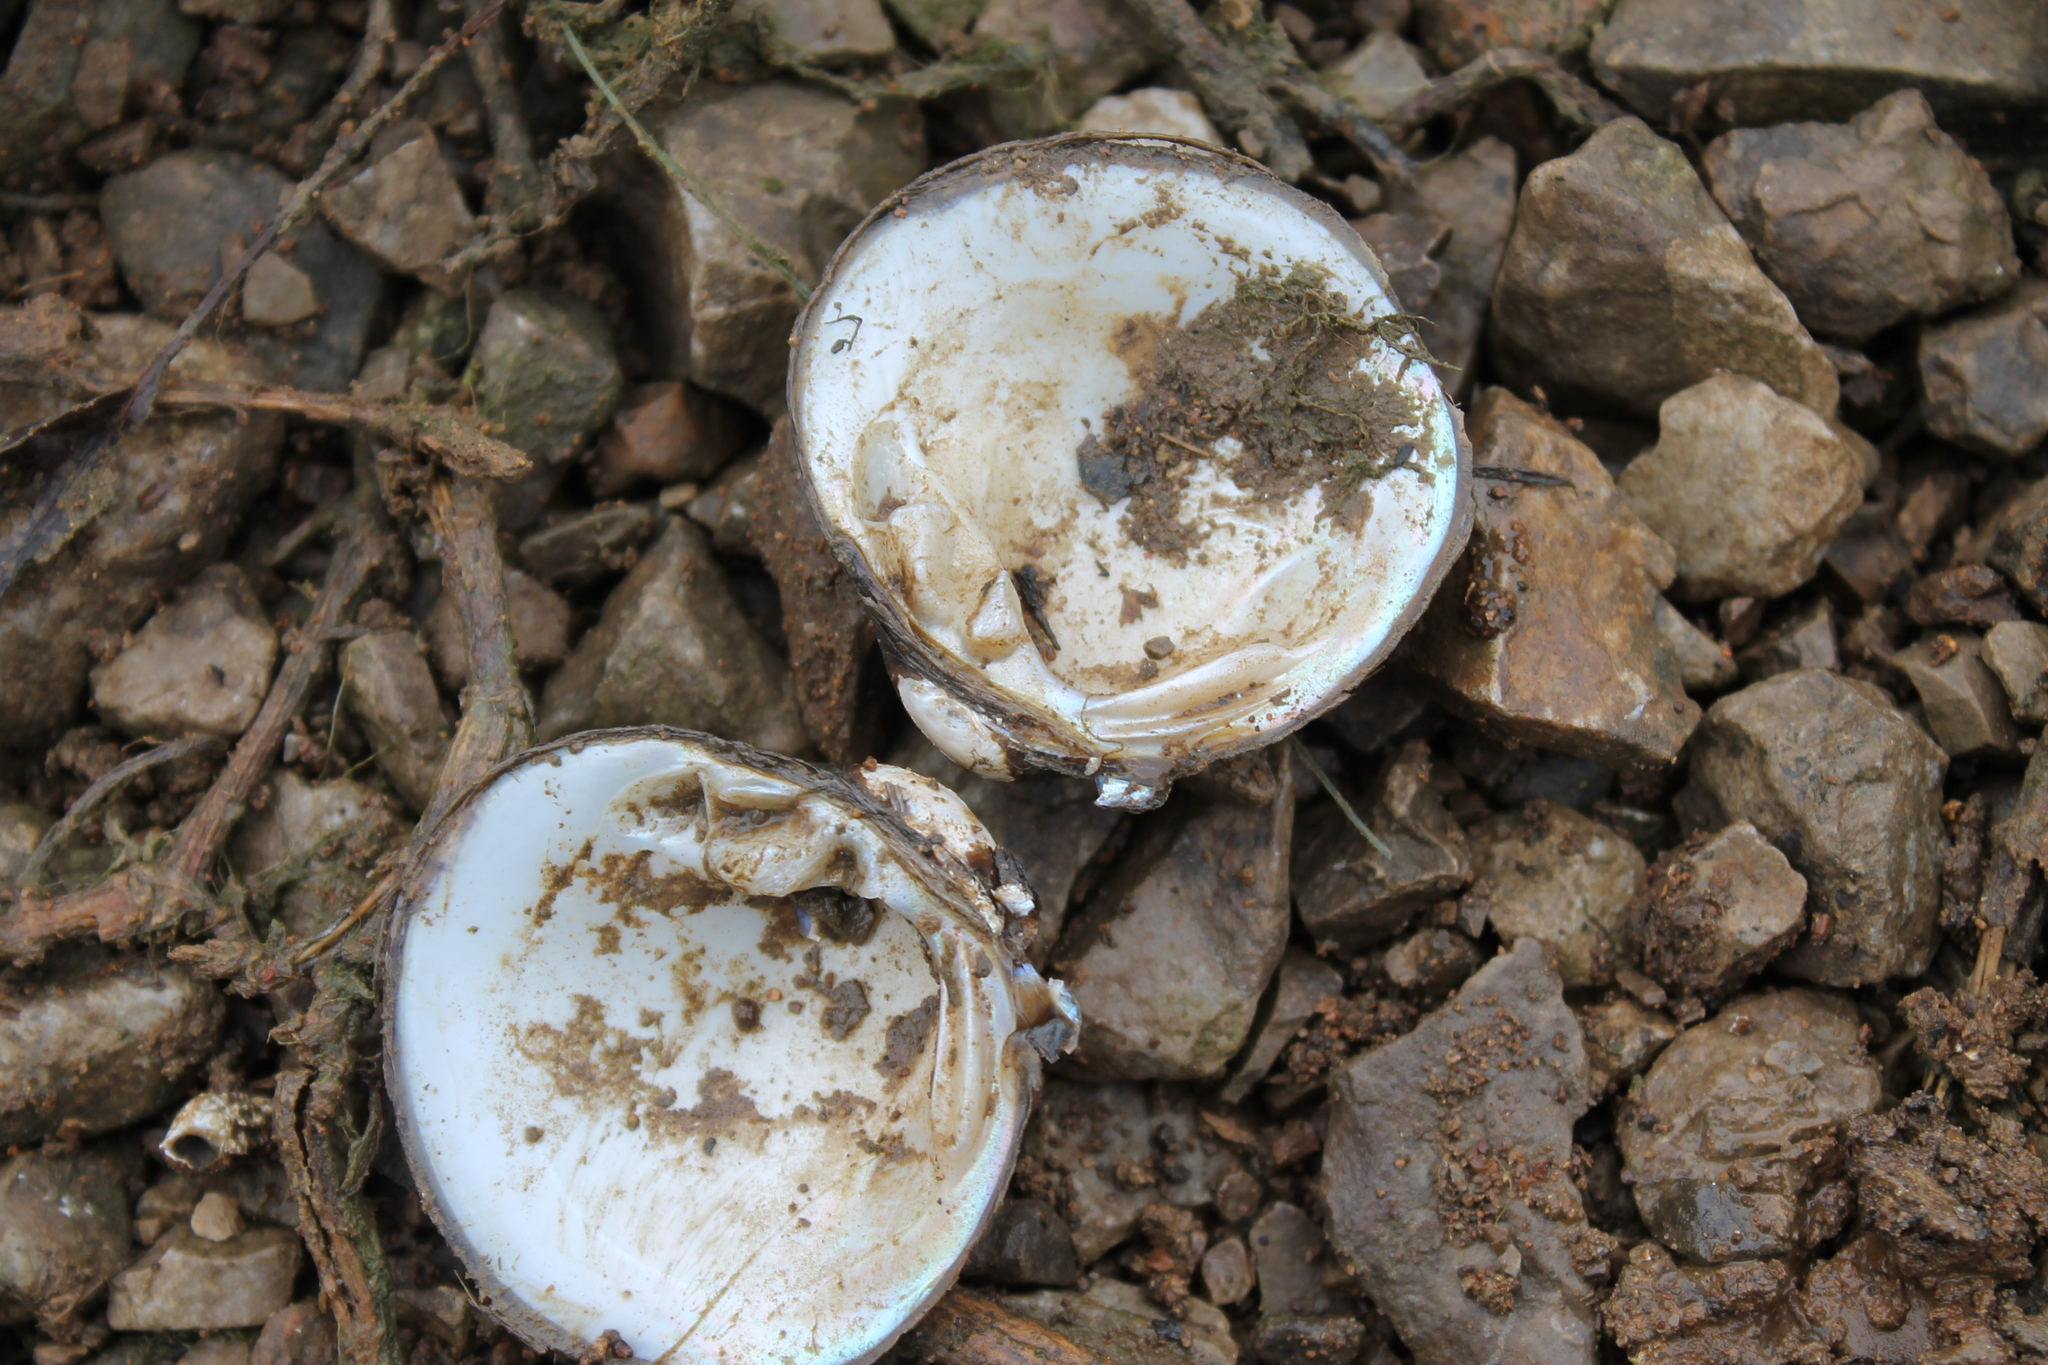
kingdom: Animalia
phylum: Mollusca
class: Bivalvia
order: Unionida
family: Unionidae
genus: Obovaria
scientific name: Obovaria subrotunda
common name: Round hickorynut
